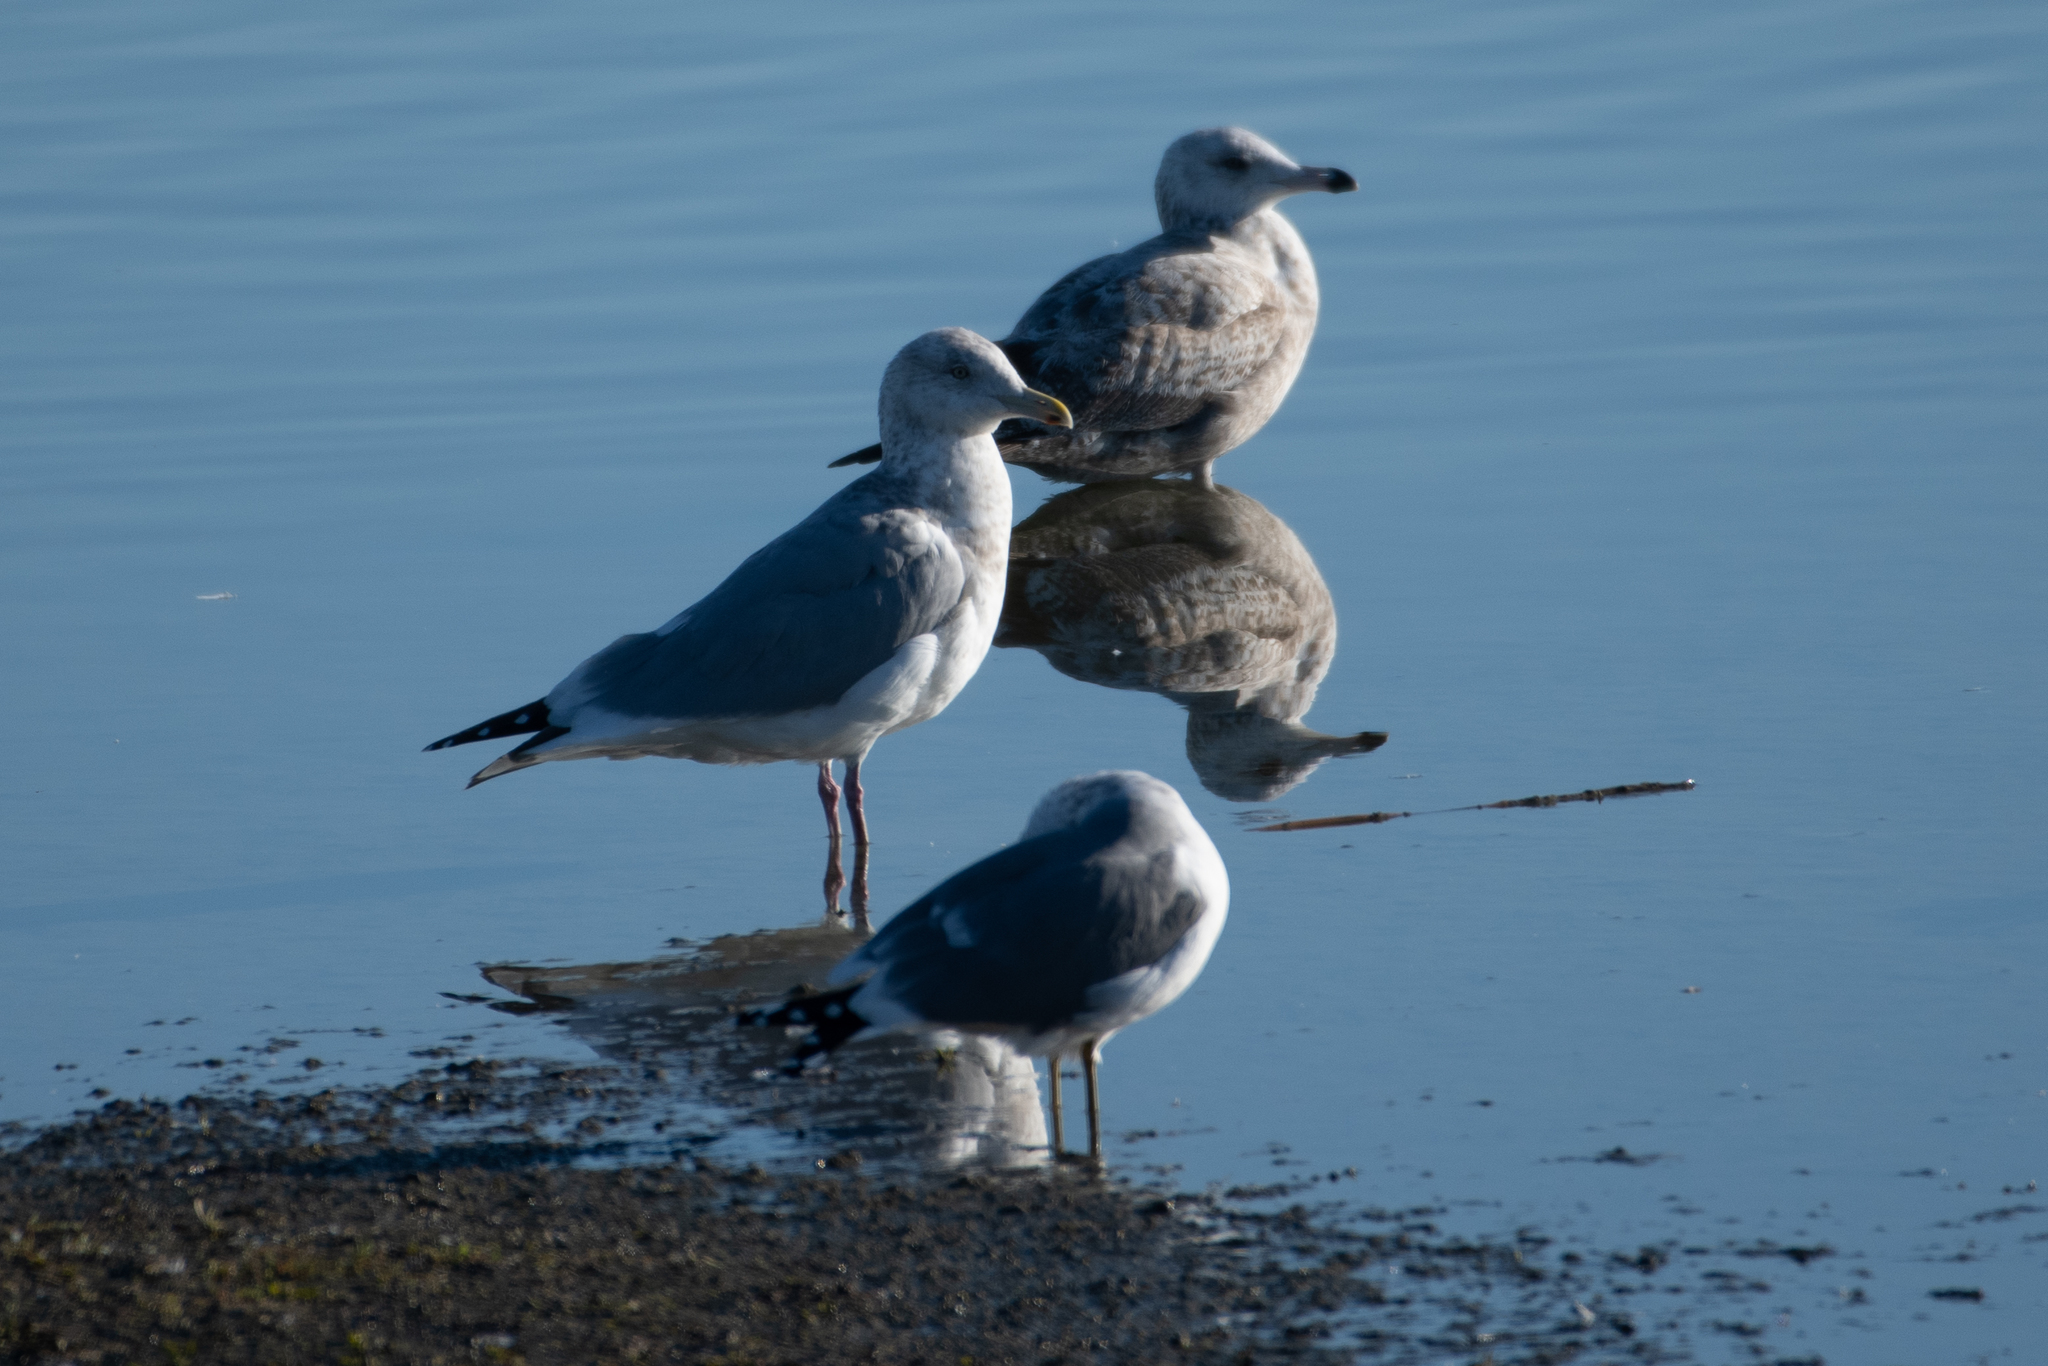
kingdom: Animalia
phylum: Chordata
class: Aves
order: Charadriiformes
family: Laridae
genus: Larus
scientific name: Larus argentatus
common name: Herring gull
